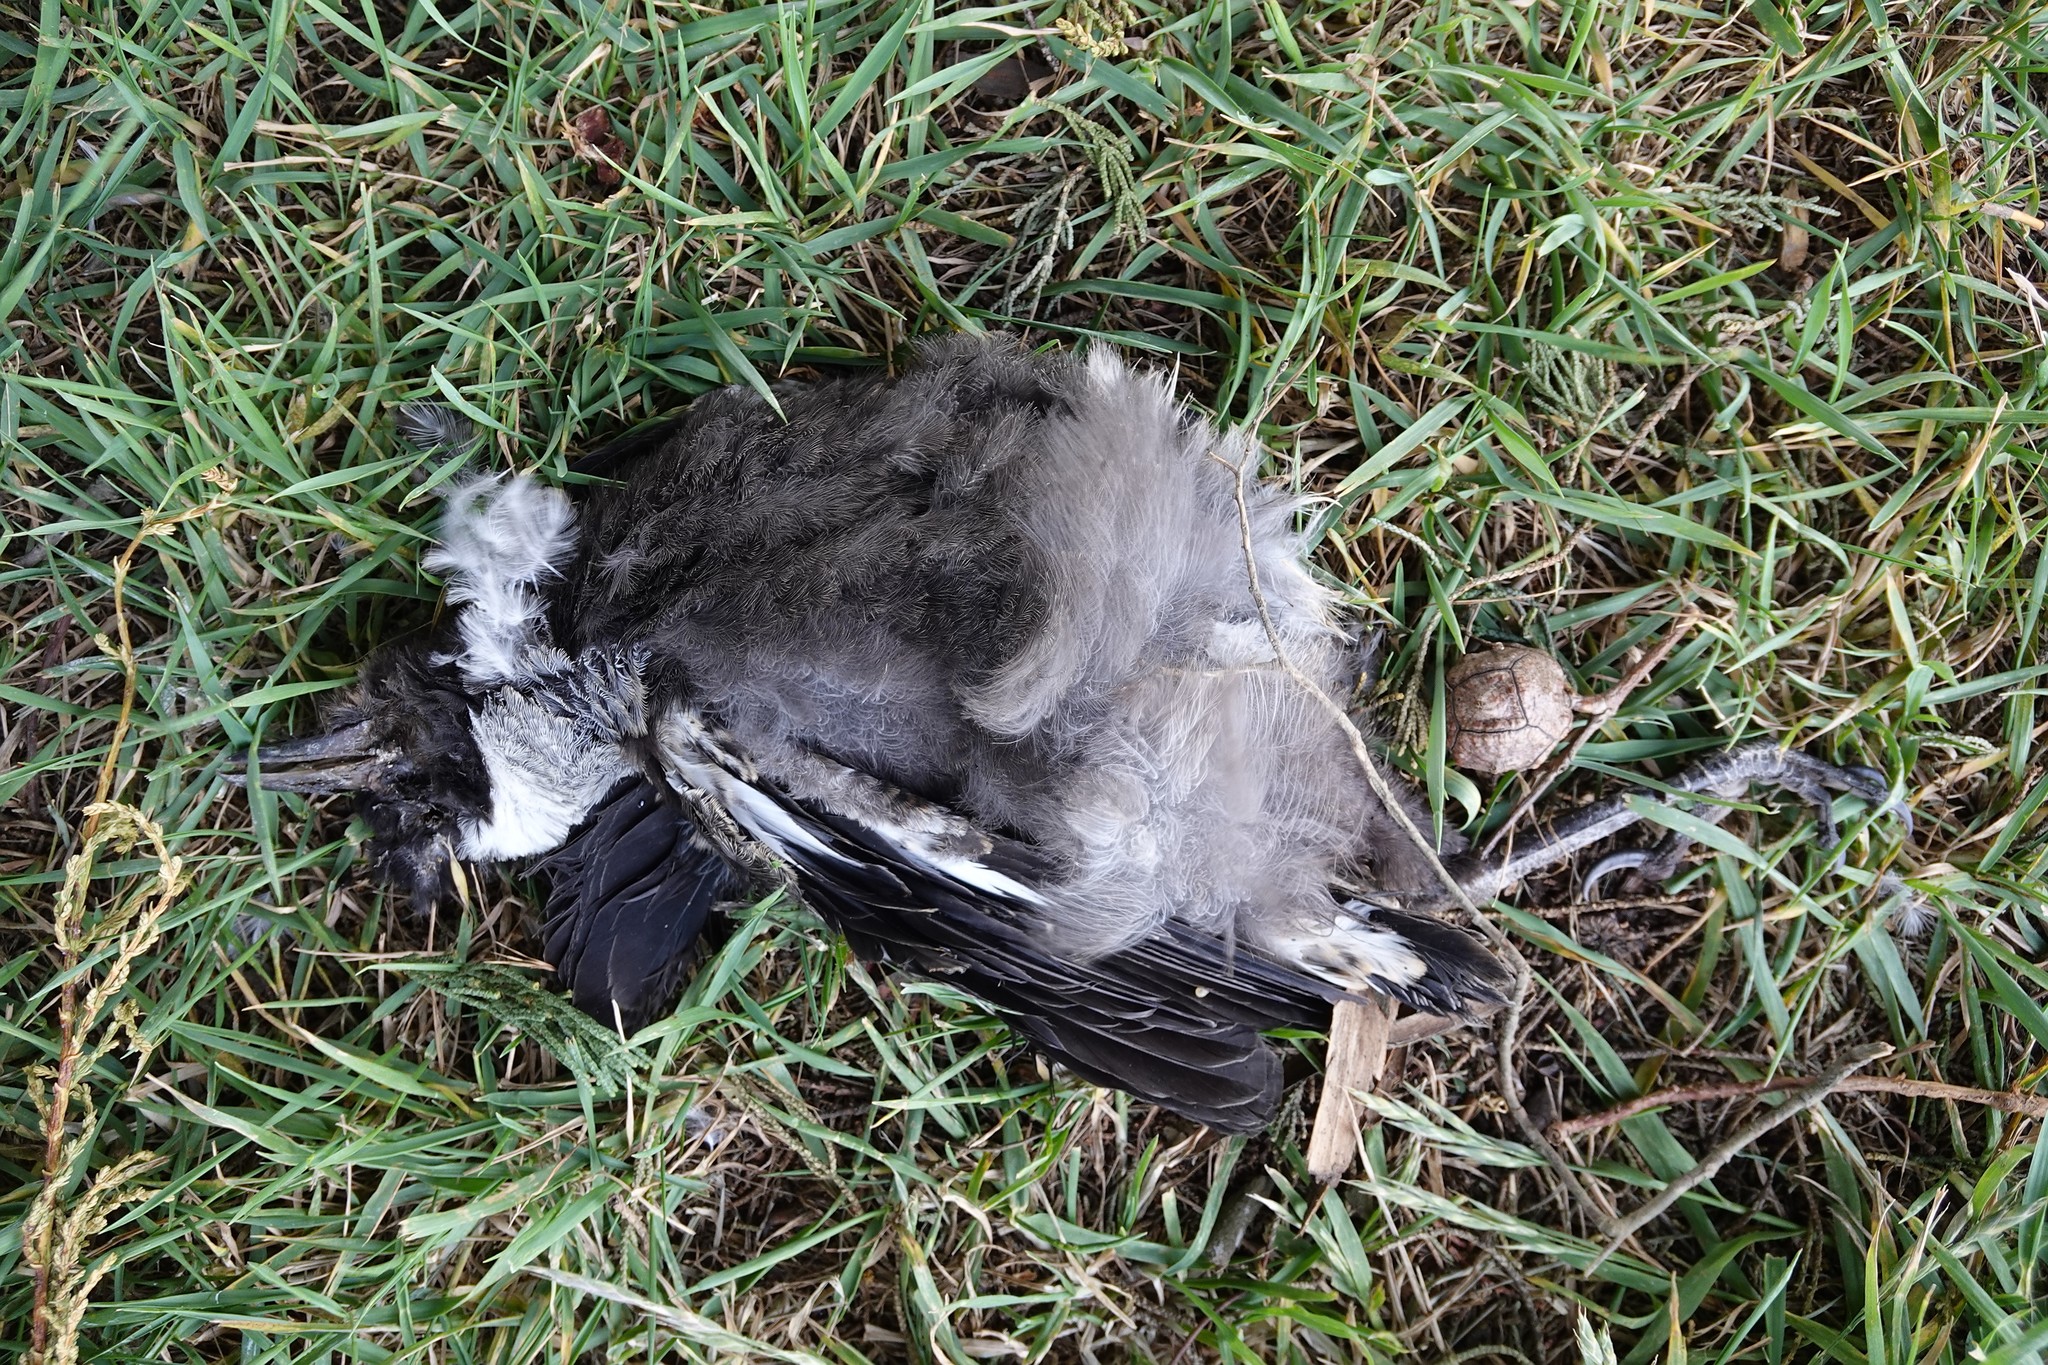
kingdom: Animalia
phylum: Chordata
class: Aves
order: Passeriformes
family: Cracticidae
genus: Gymnorhina
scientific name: Gymnorhina tibicen
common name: Australian magpie
